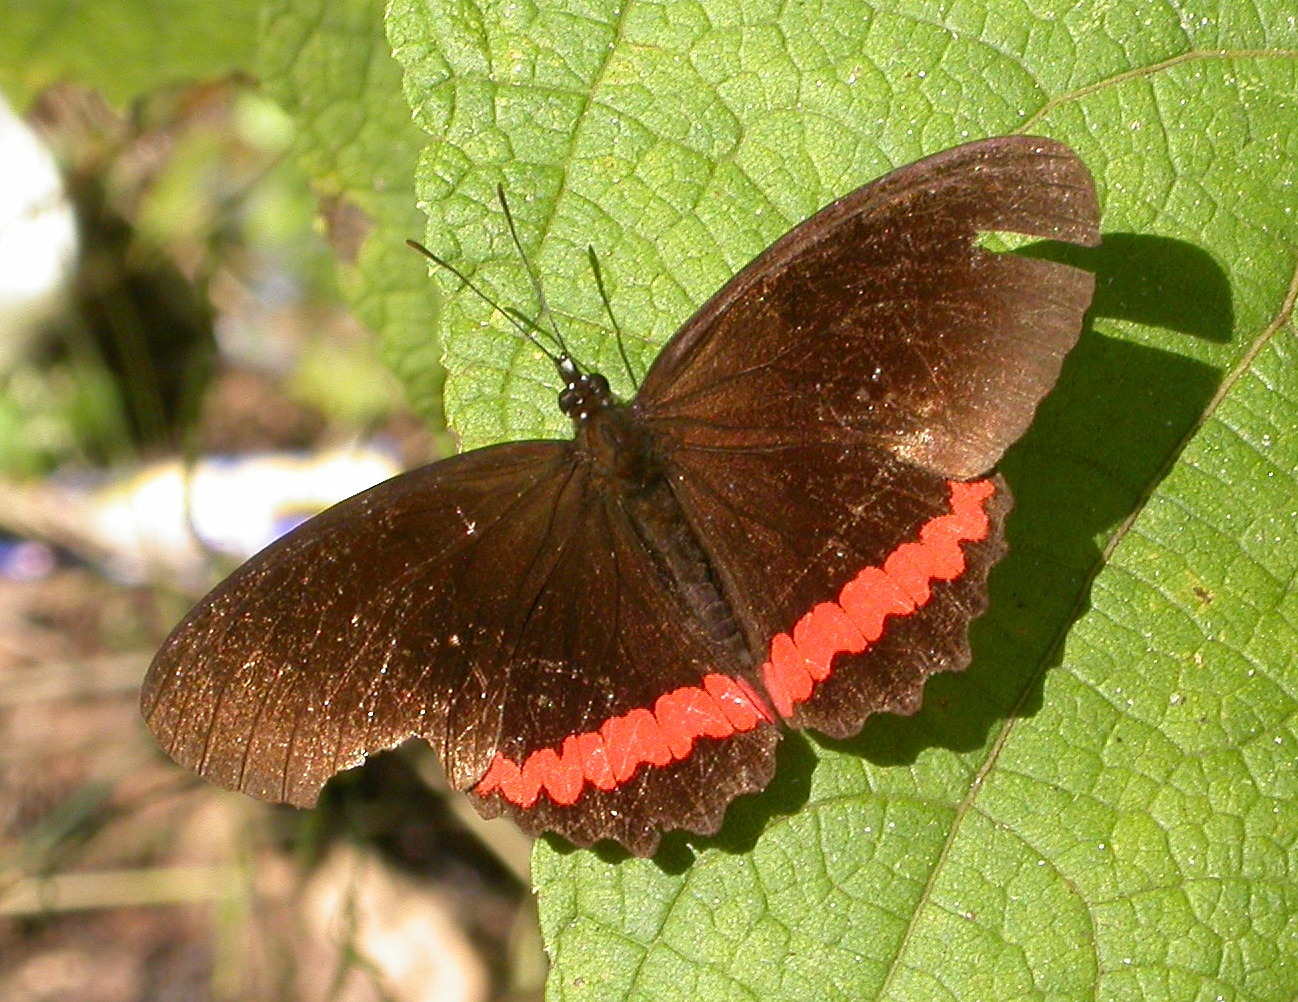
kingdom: Animalia
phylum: Arthropoda
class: Insecta
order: Lepidoptera
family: Nymphalidae
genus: Biblis
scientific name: Biblis aganisa
